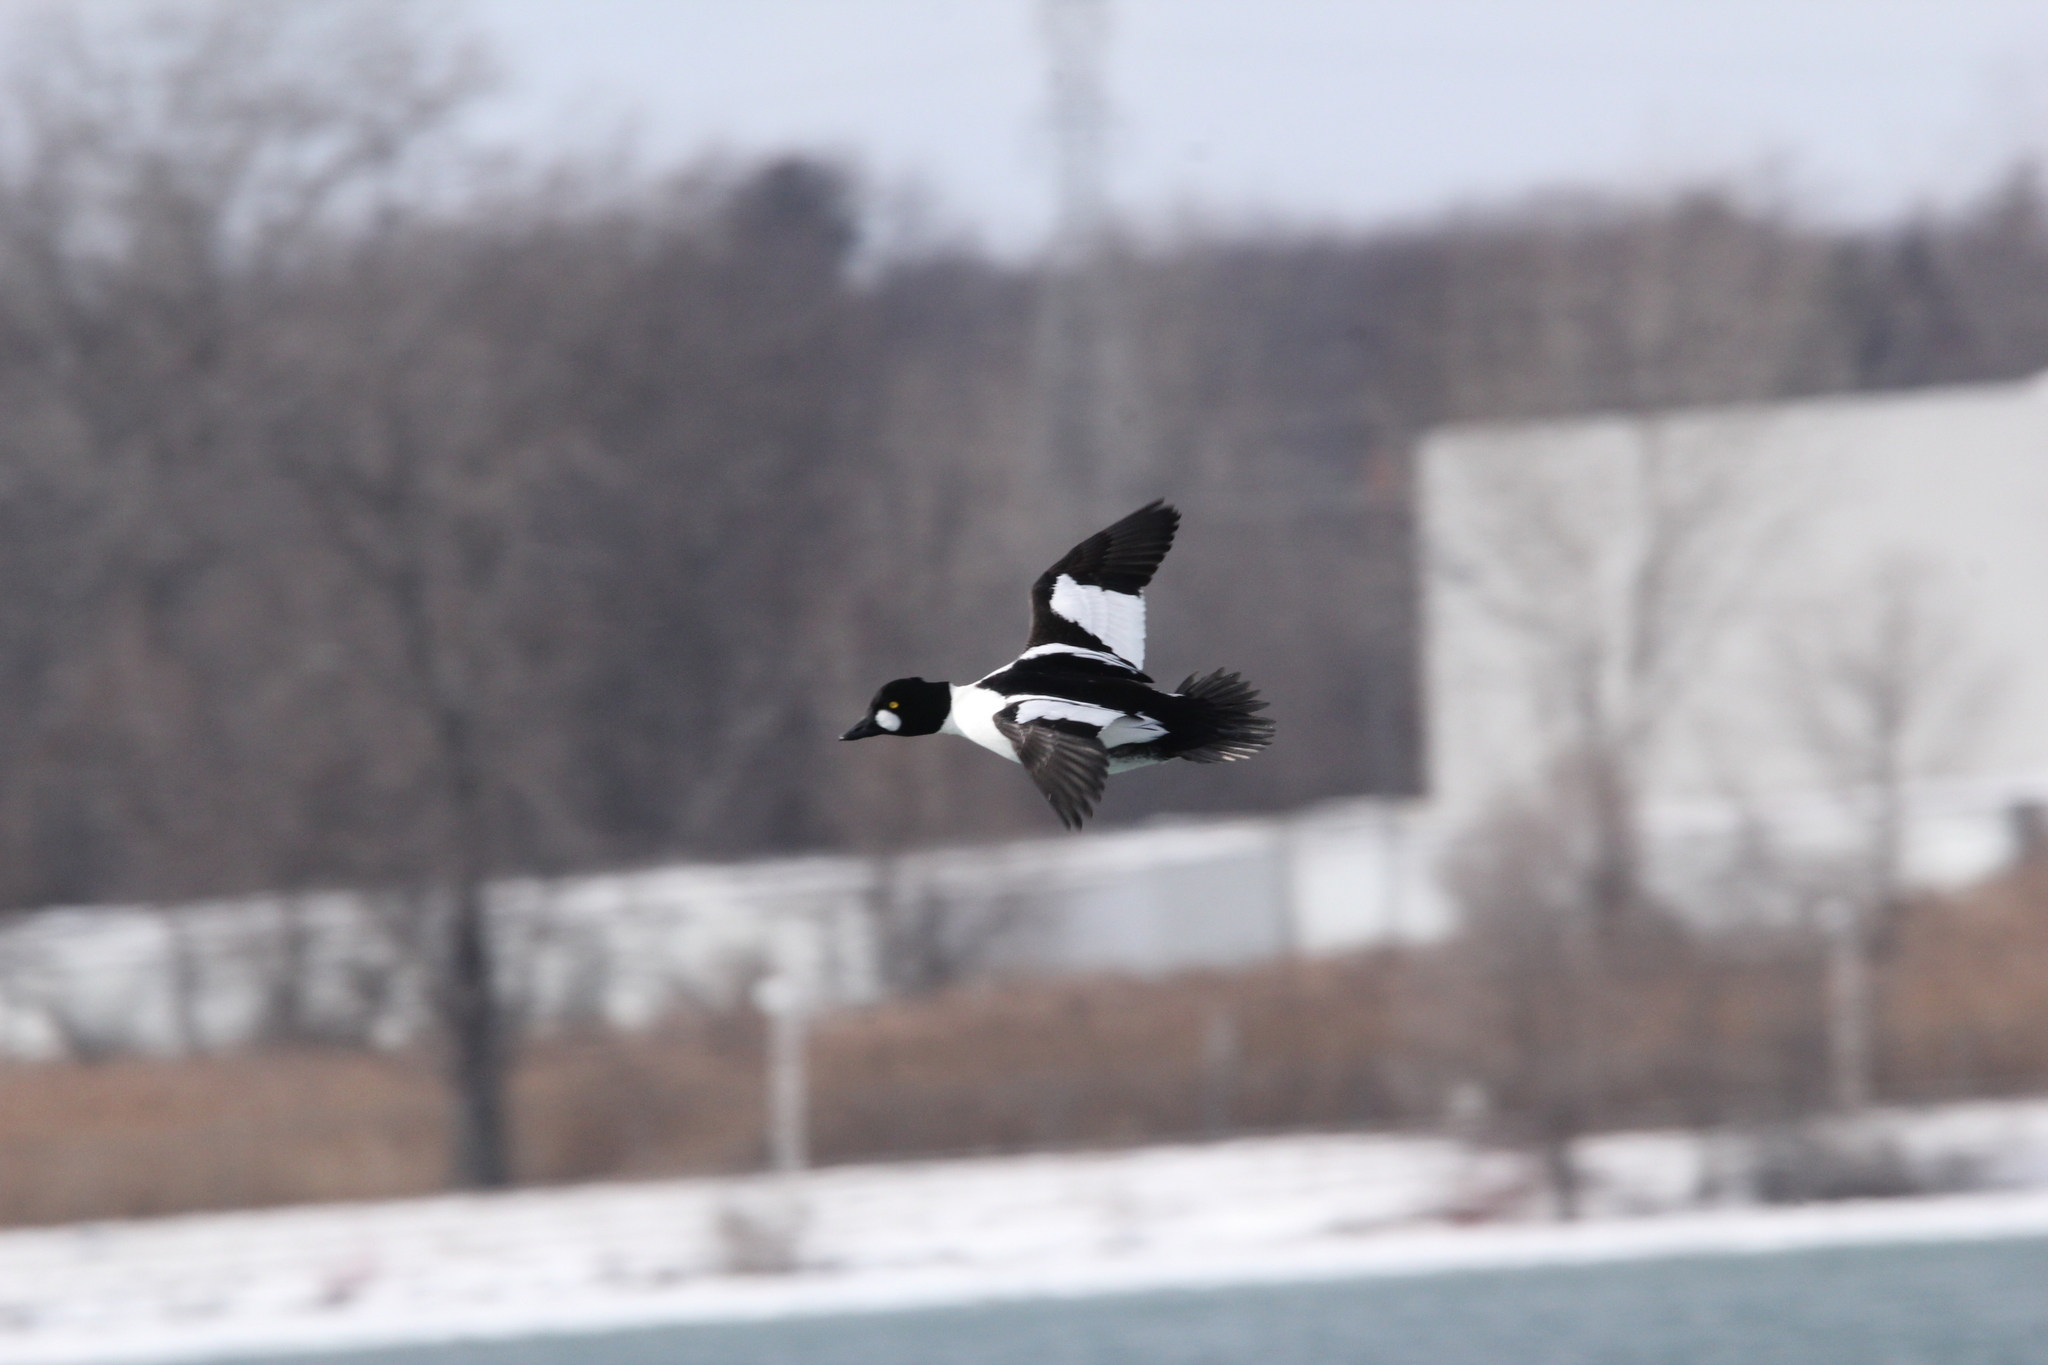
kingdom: Animalia
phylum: Chordata
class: Aves
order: Anseriformes
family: Anatidae
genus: Bucephala
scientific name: Bucephala clangula
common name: Common goldeneye
